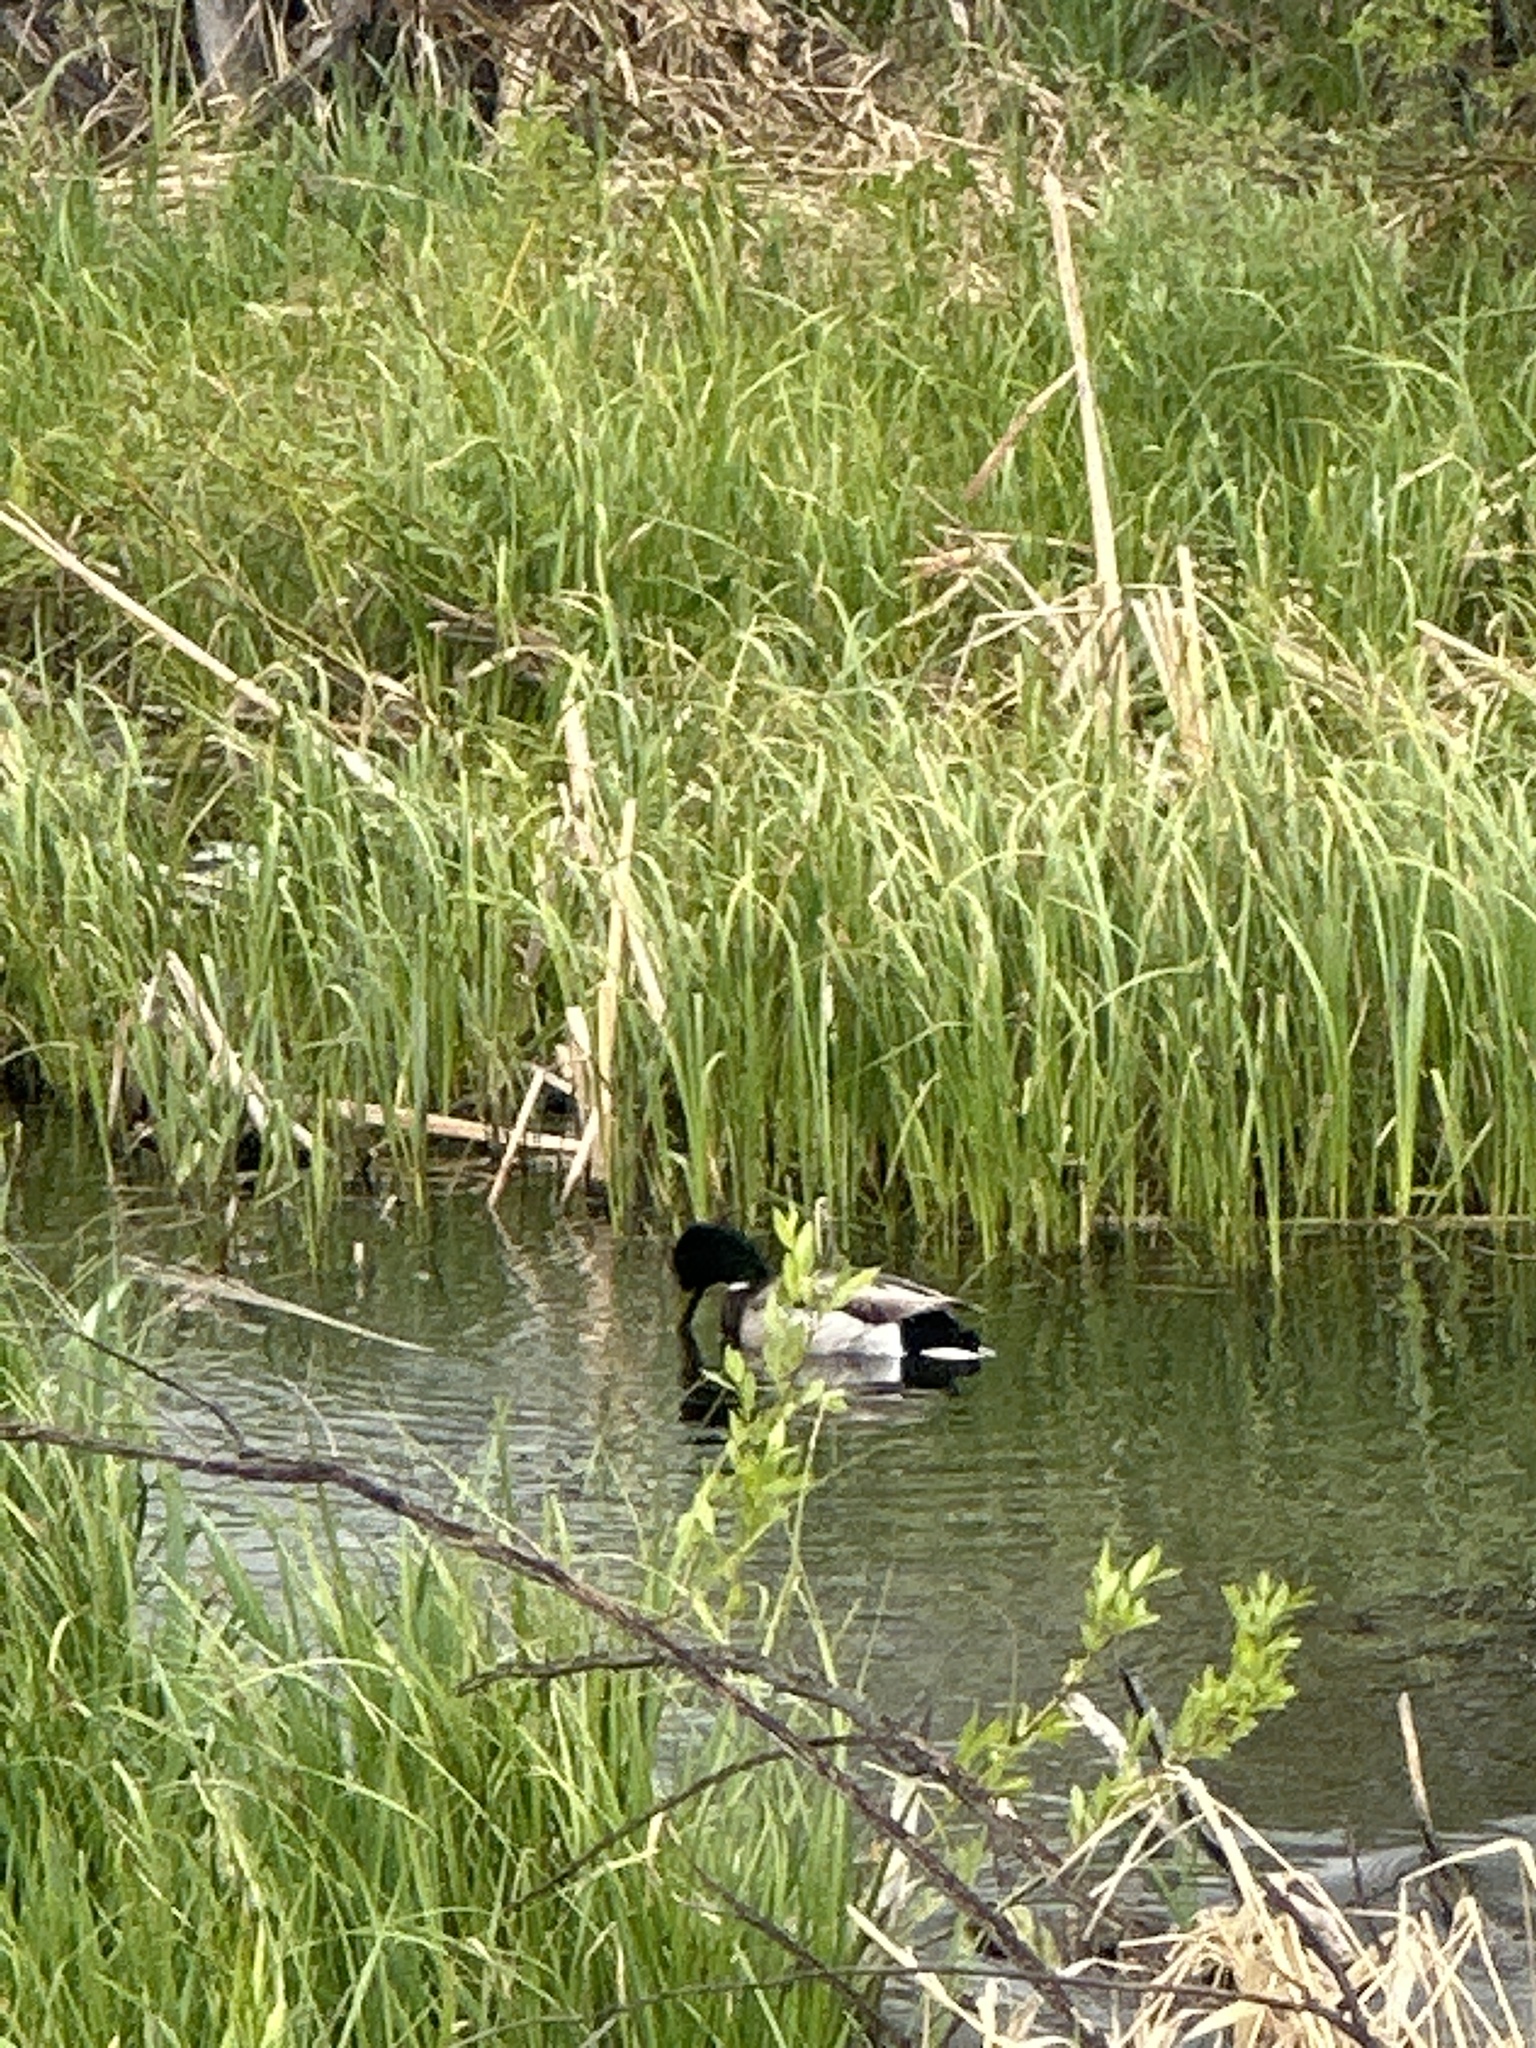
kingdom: Animalia
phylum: Chordata
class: Aves
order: Anseriformes
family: Anatidae
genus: Anas
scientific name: Anas platyrhynchos
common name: Mallard
